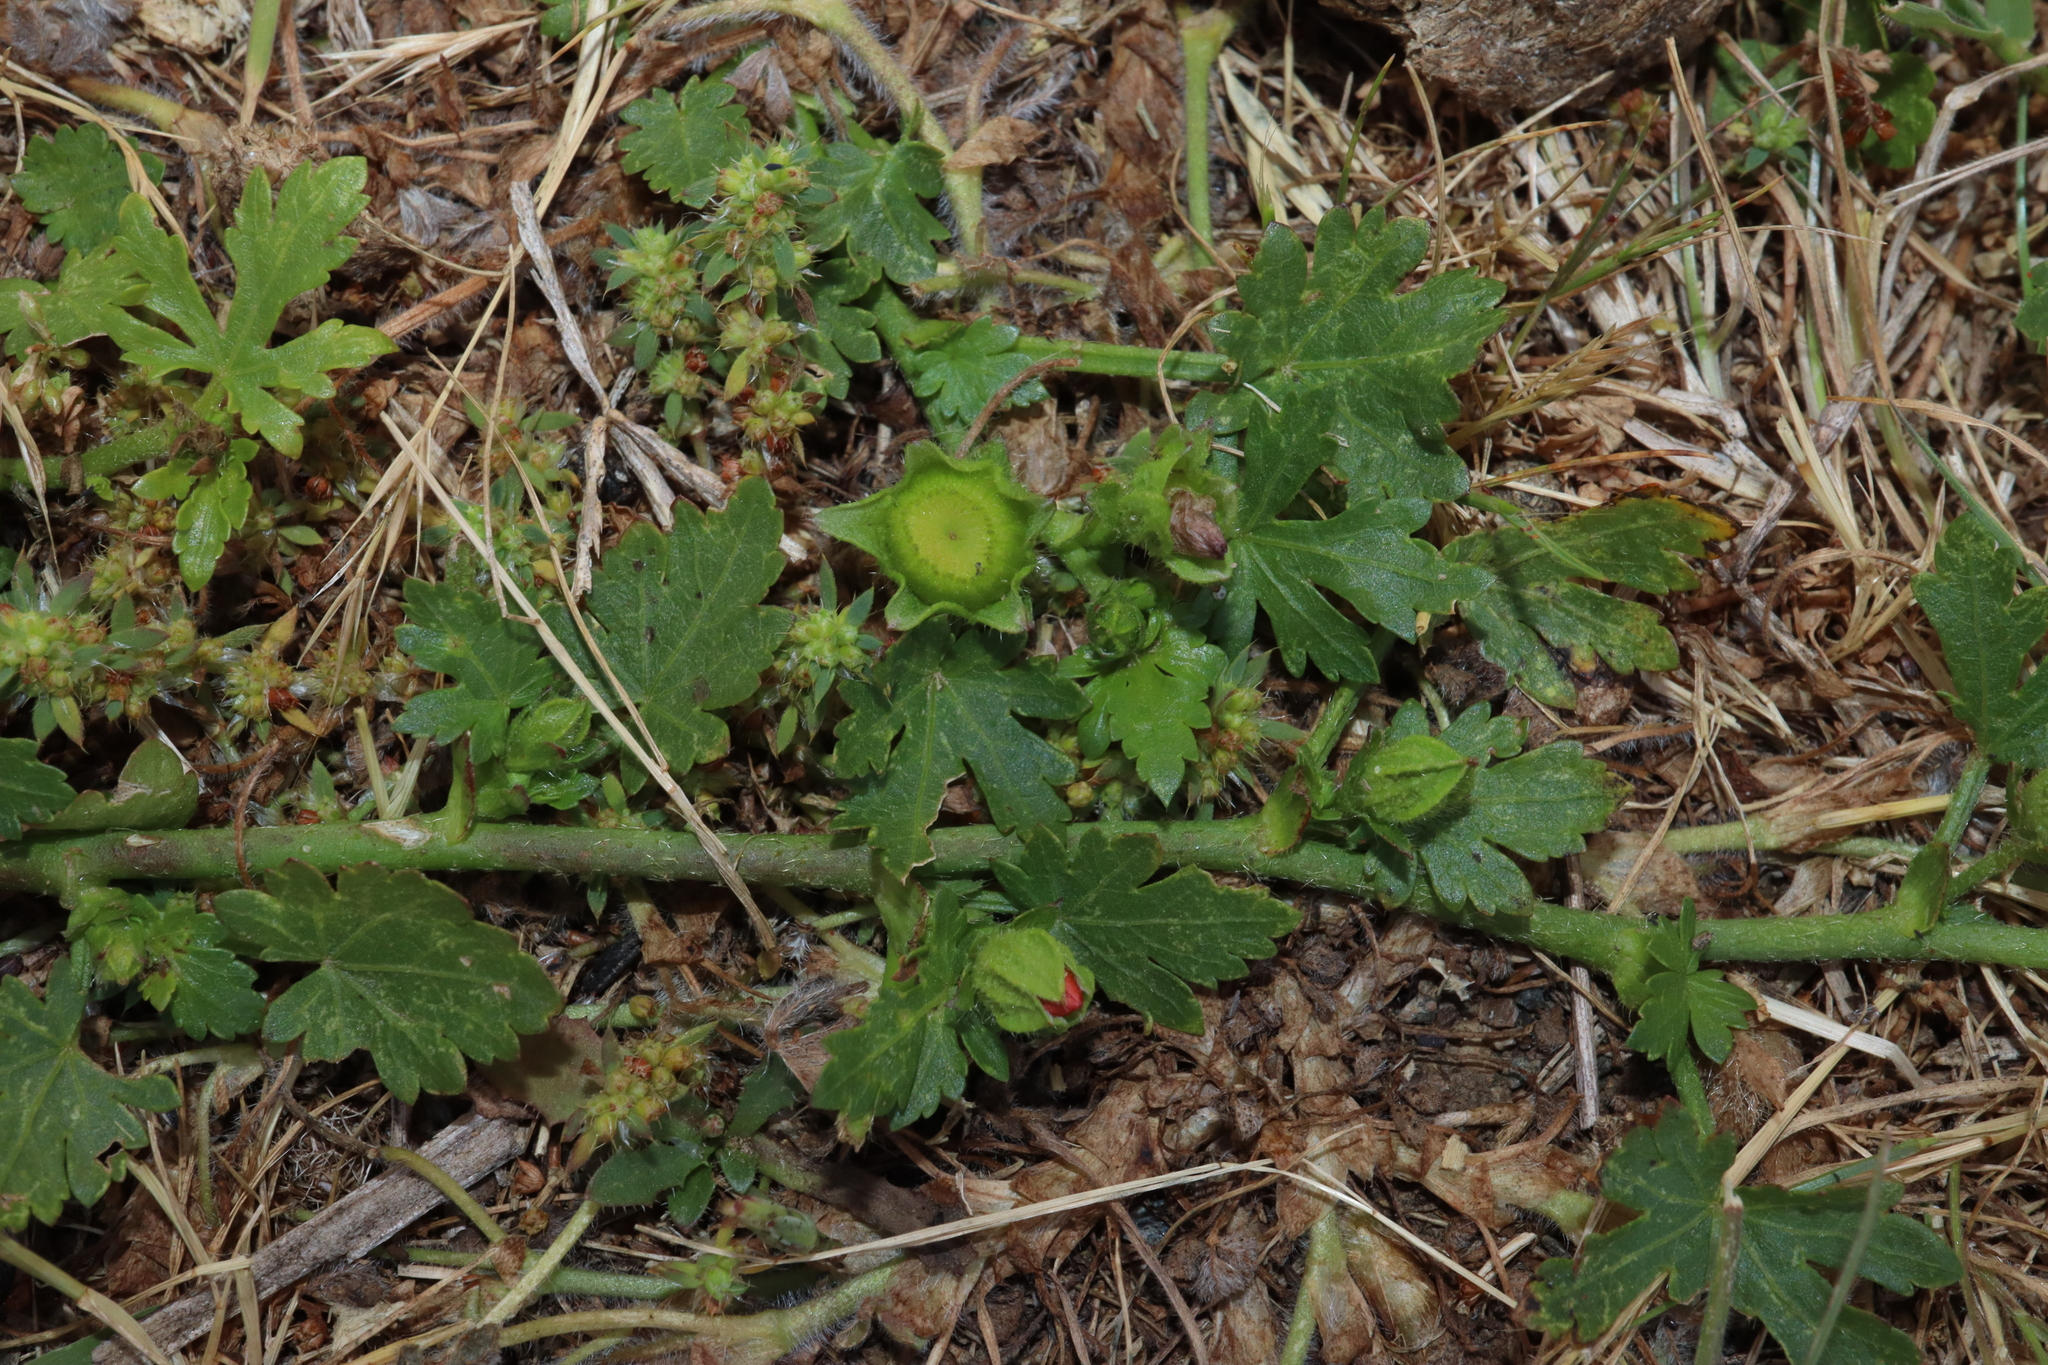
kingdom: Plantae
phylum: Tracheophyta
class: Magnoliopsida
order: Malvales
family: Malvaceae
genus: Modiola
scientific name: Modiola caroliniana
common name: Carolina bristlemallow
